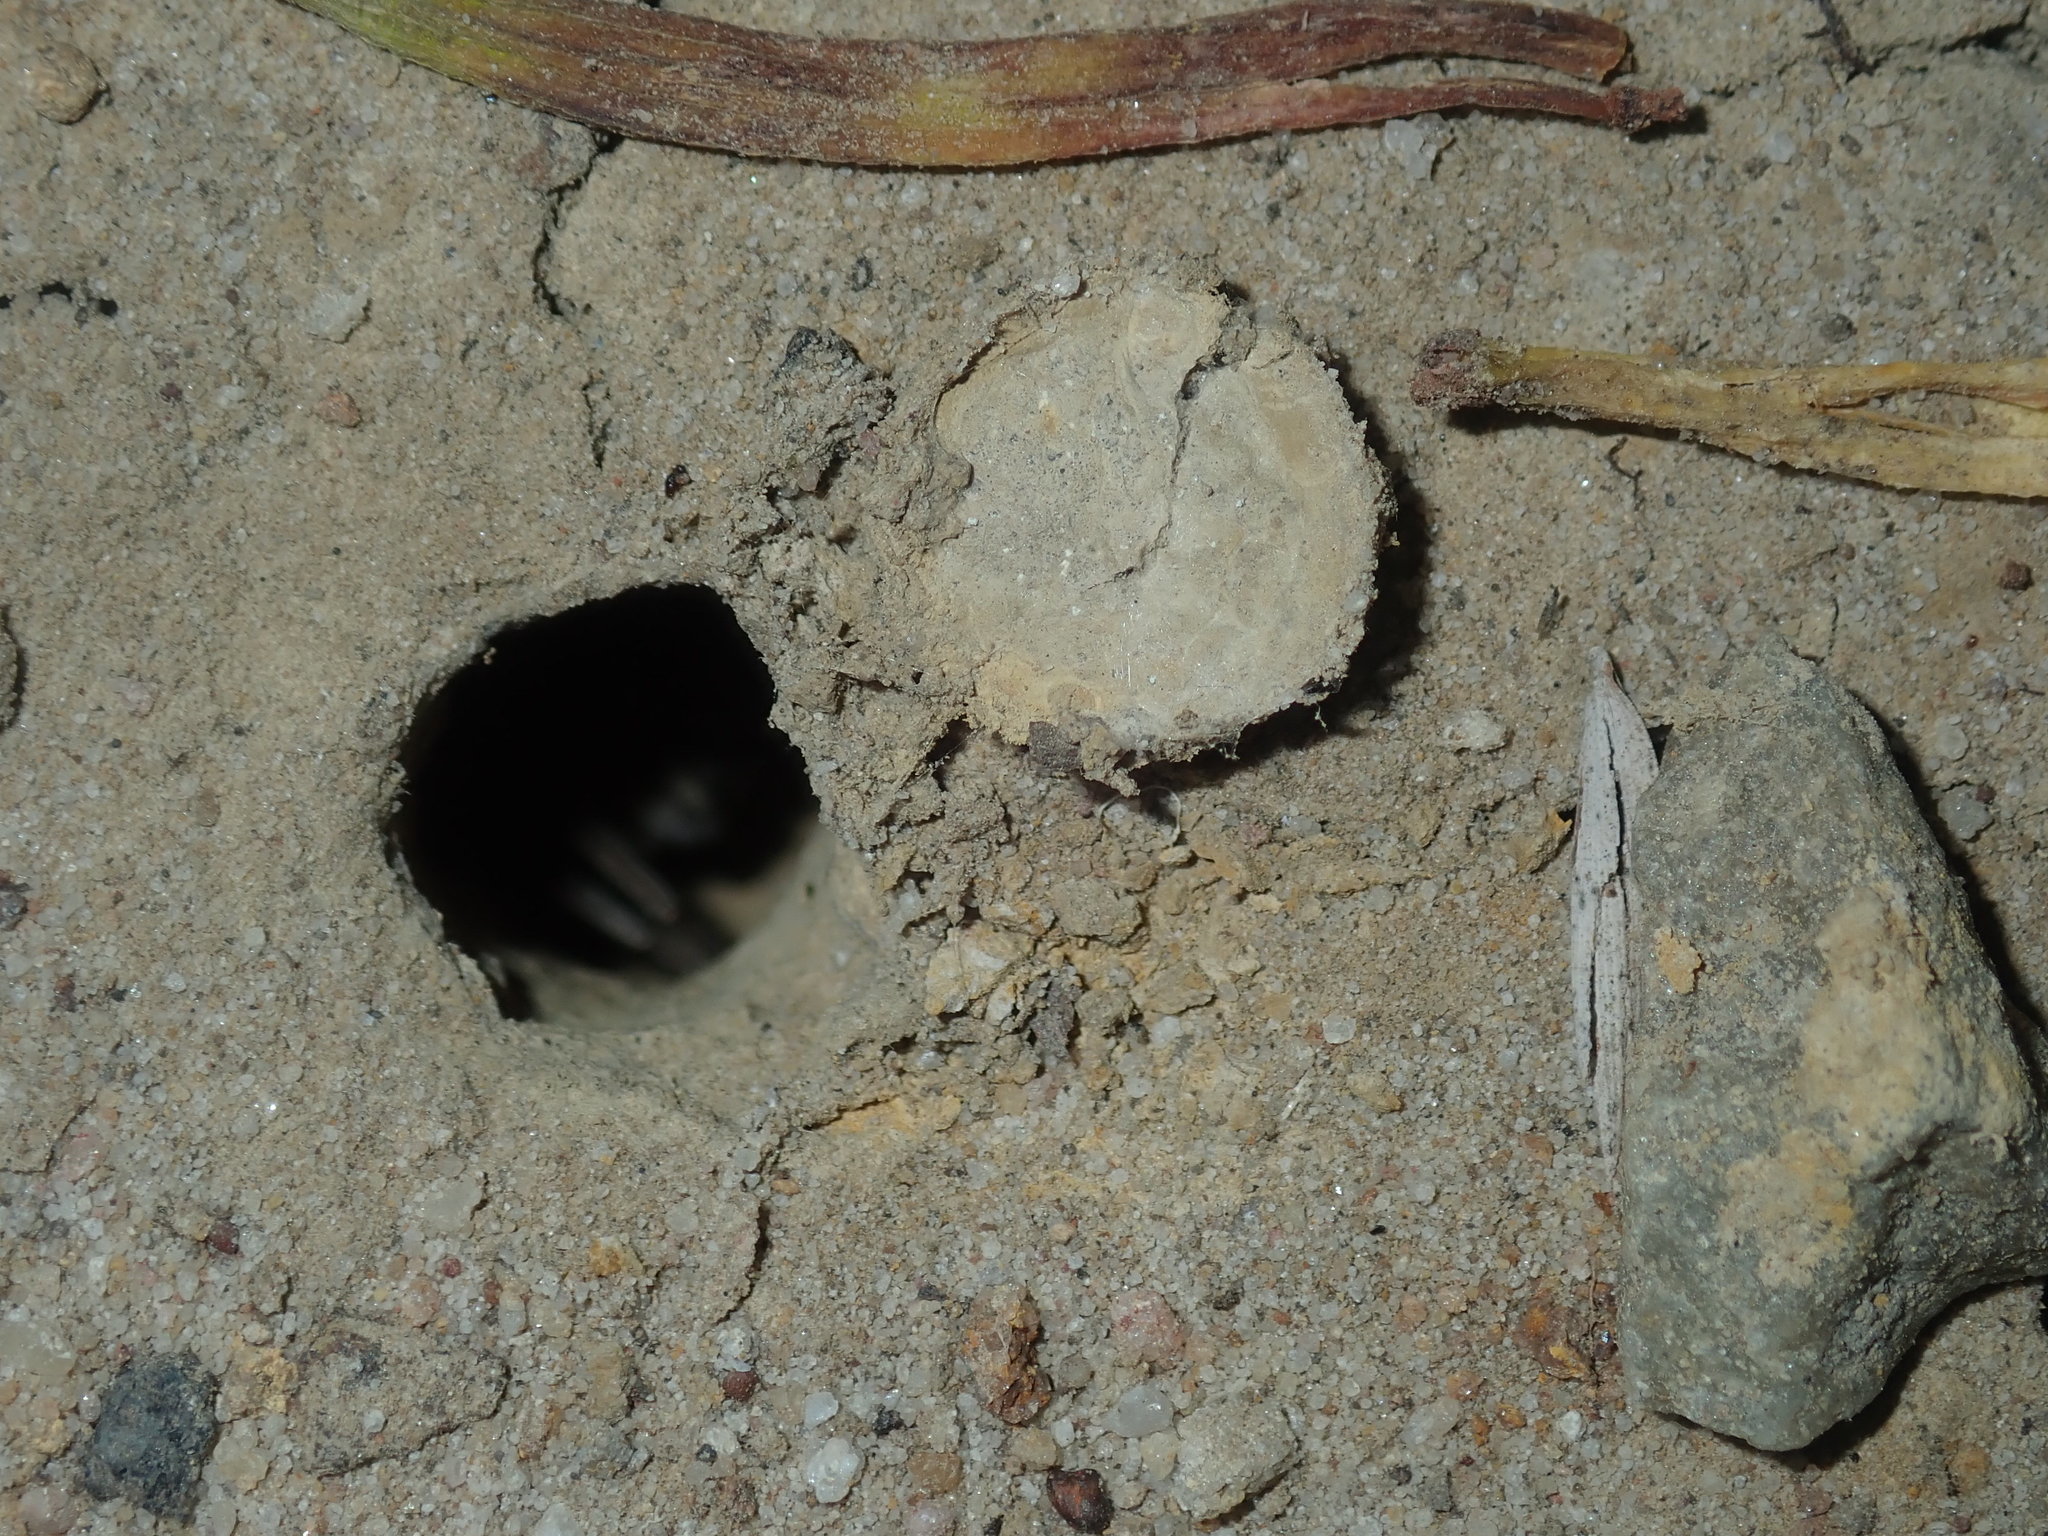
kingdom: Animalia
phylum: Arthropoda
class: Arachnida
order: Araneae
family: Lycosidae
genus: Portacosa
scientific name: Portacosa cinerea
